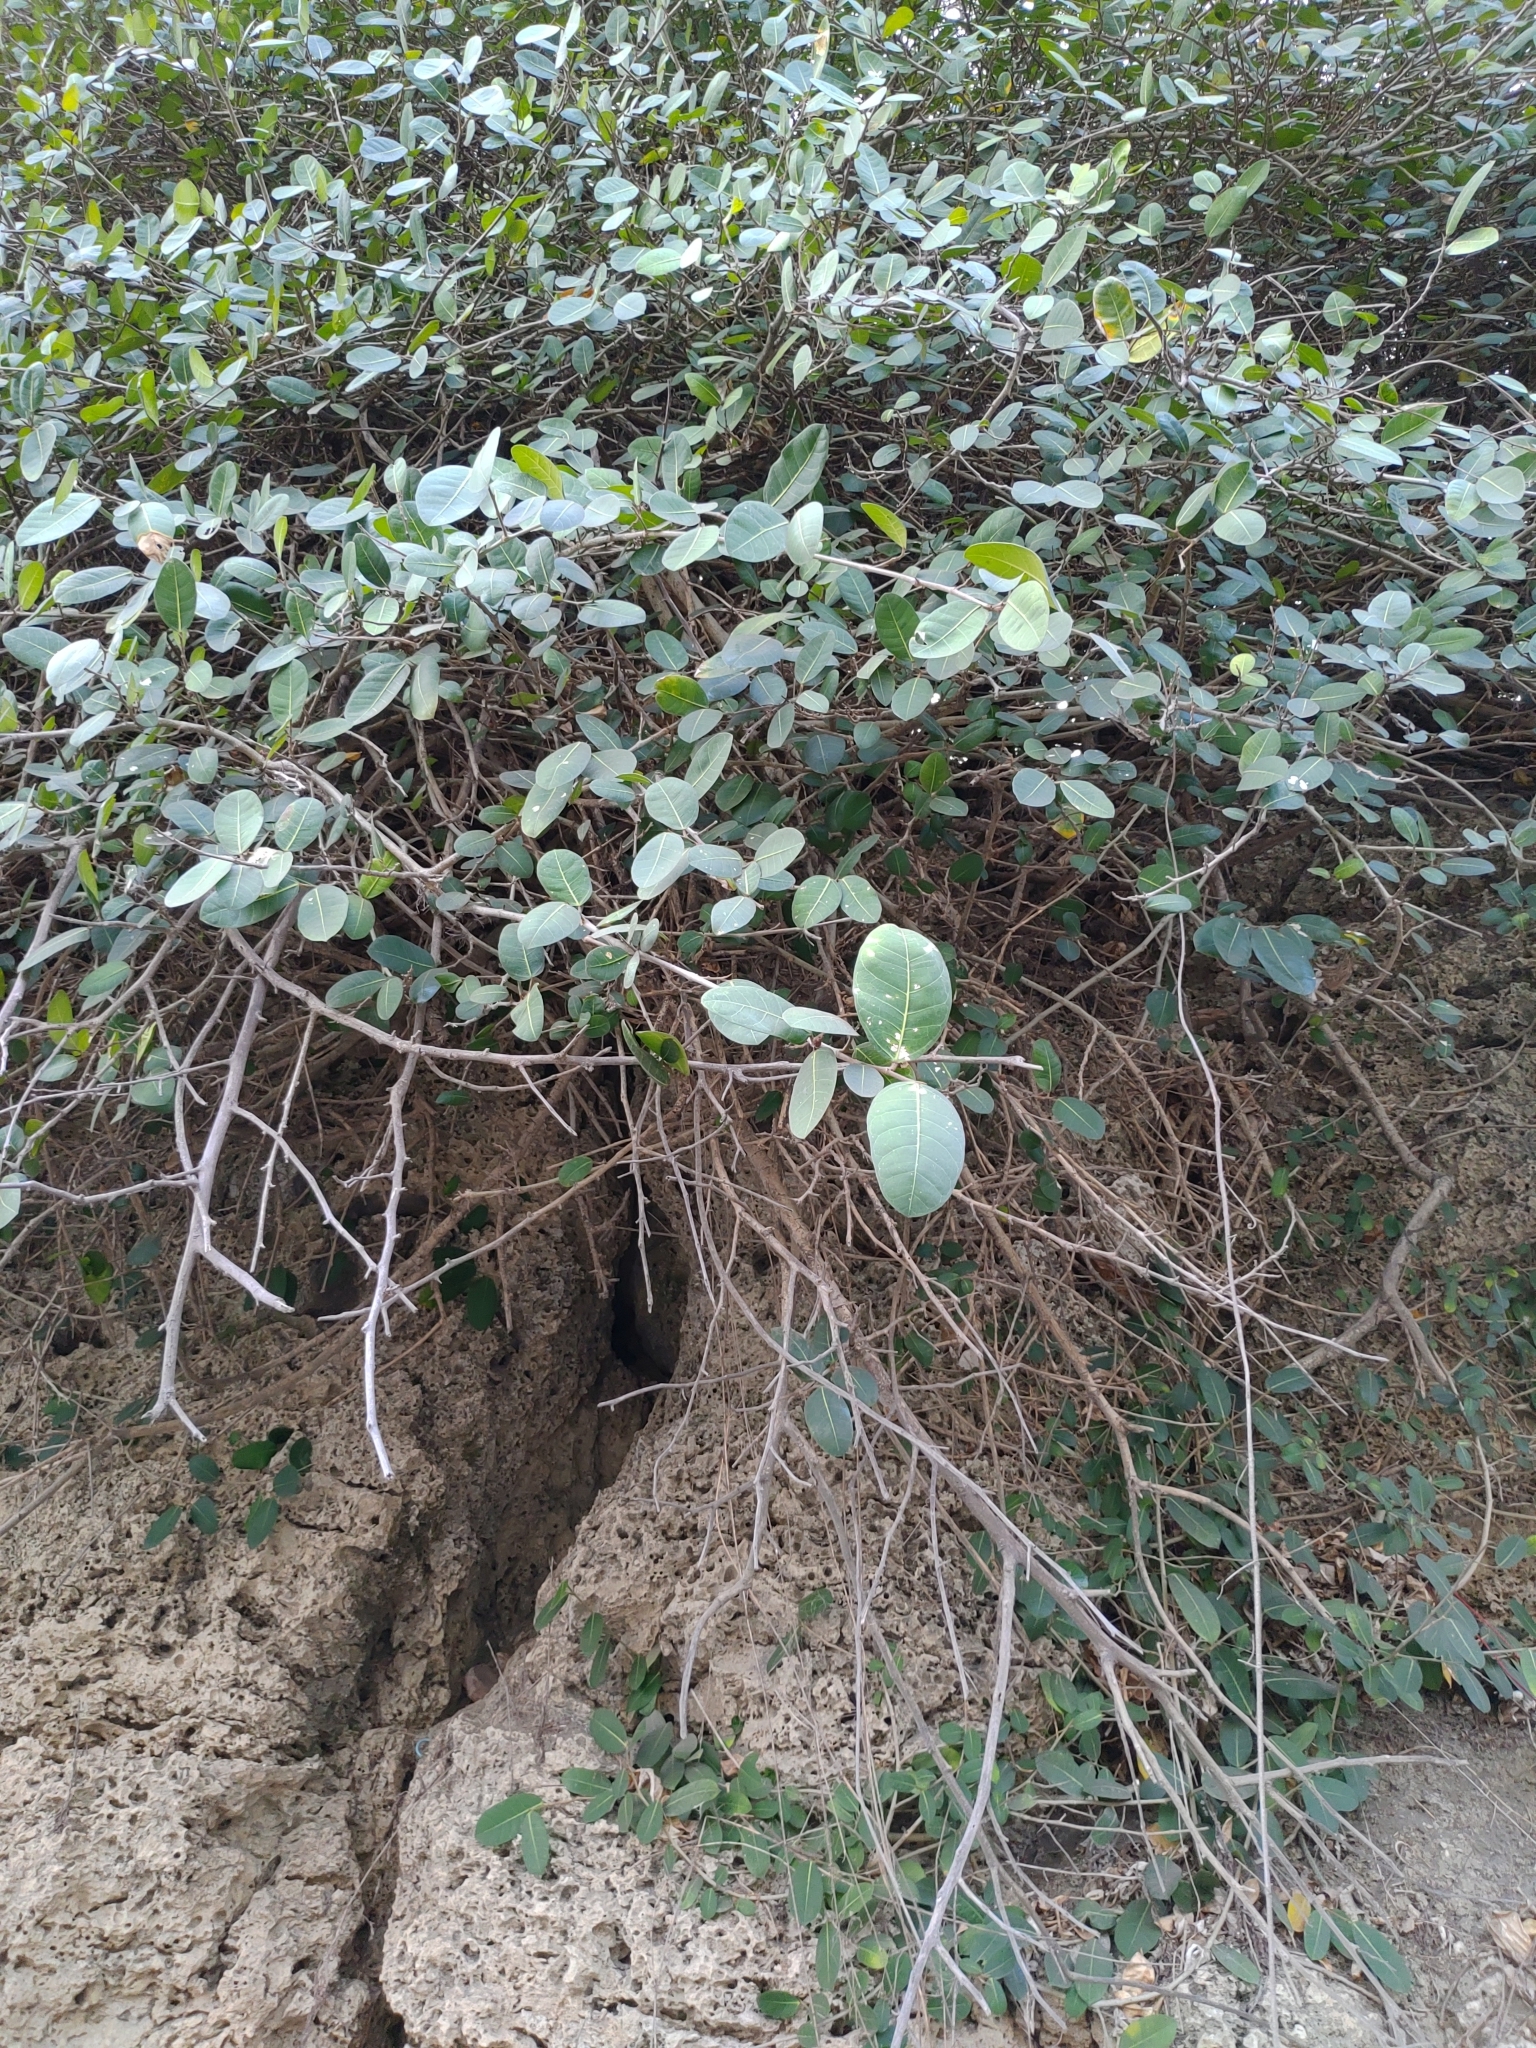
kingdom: Plantae
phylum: Tracheophyta
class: Magnoliopsida
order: Rosales
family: Moraceae
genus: Ficus
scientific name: Ficus tinctoria
